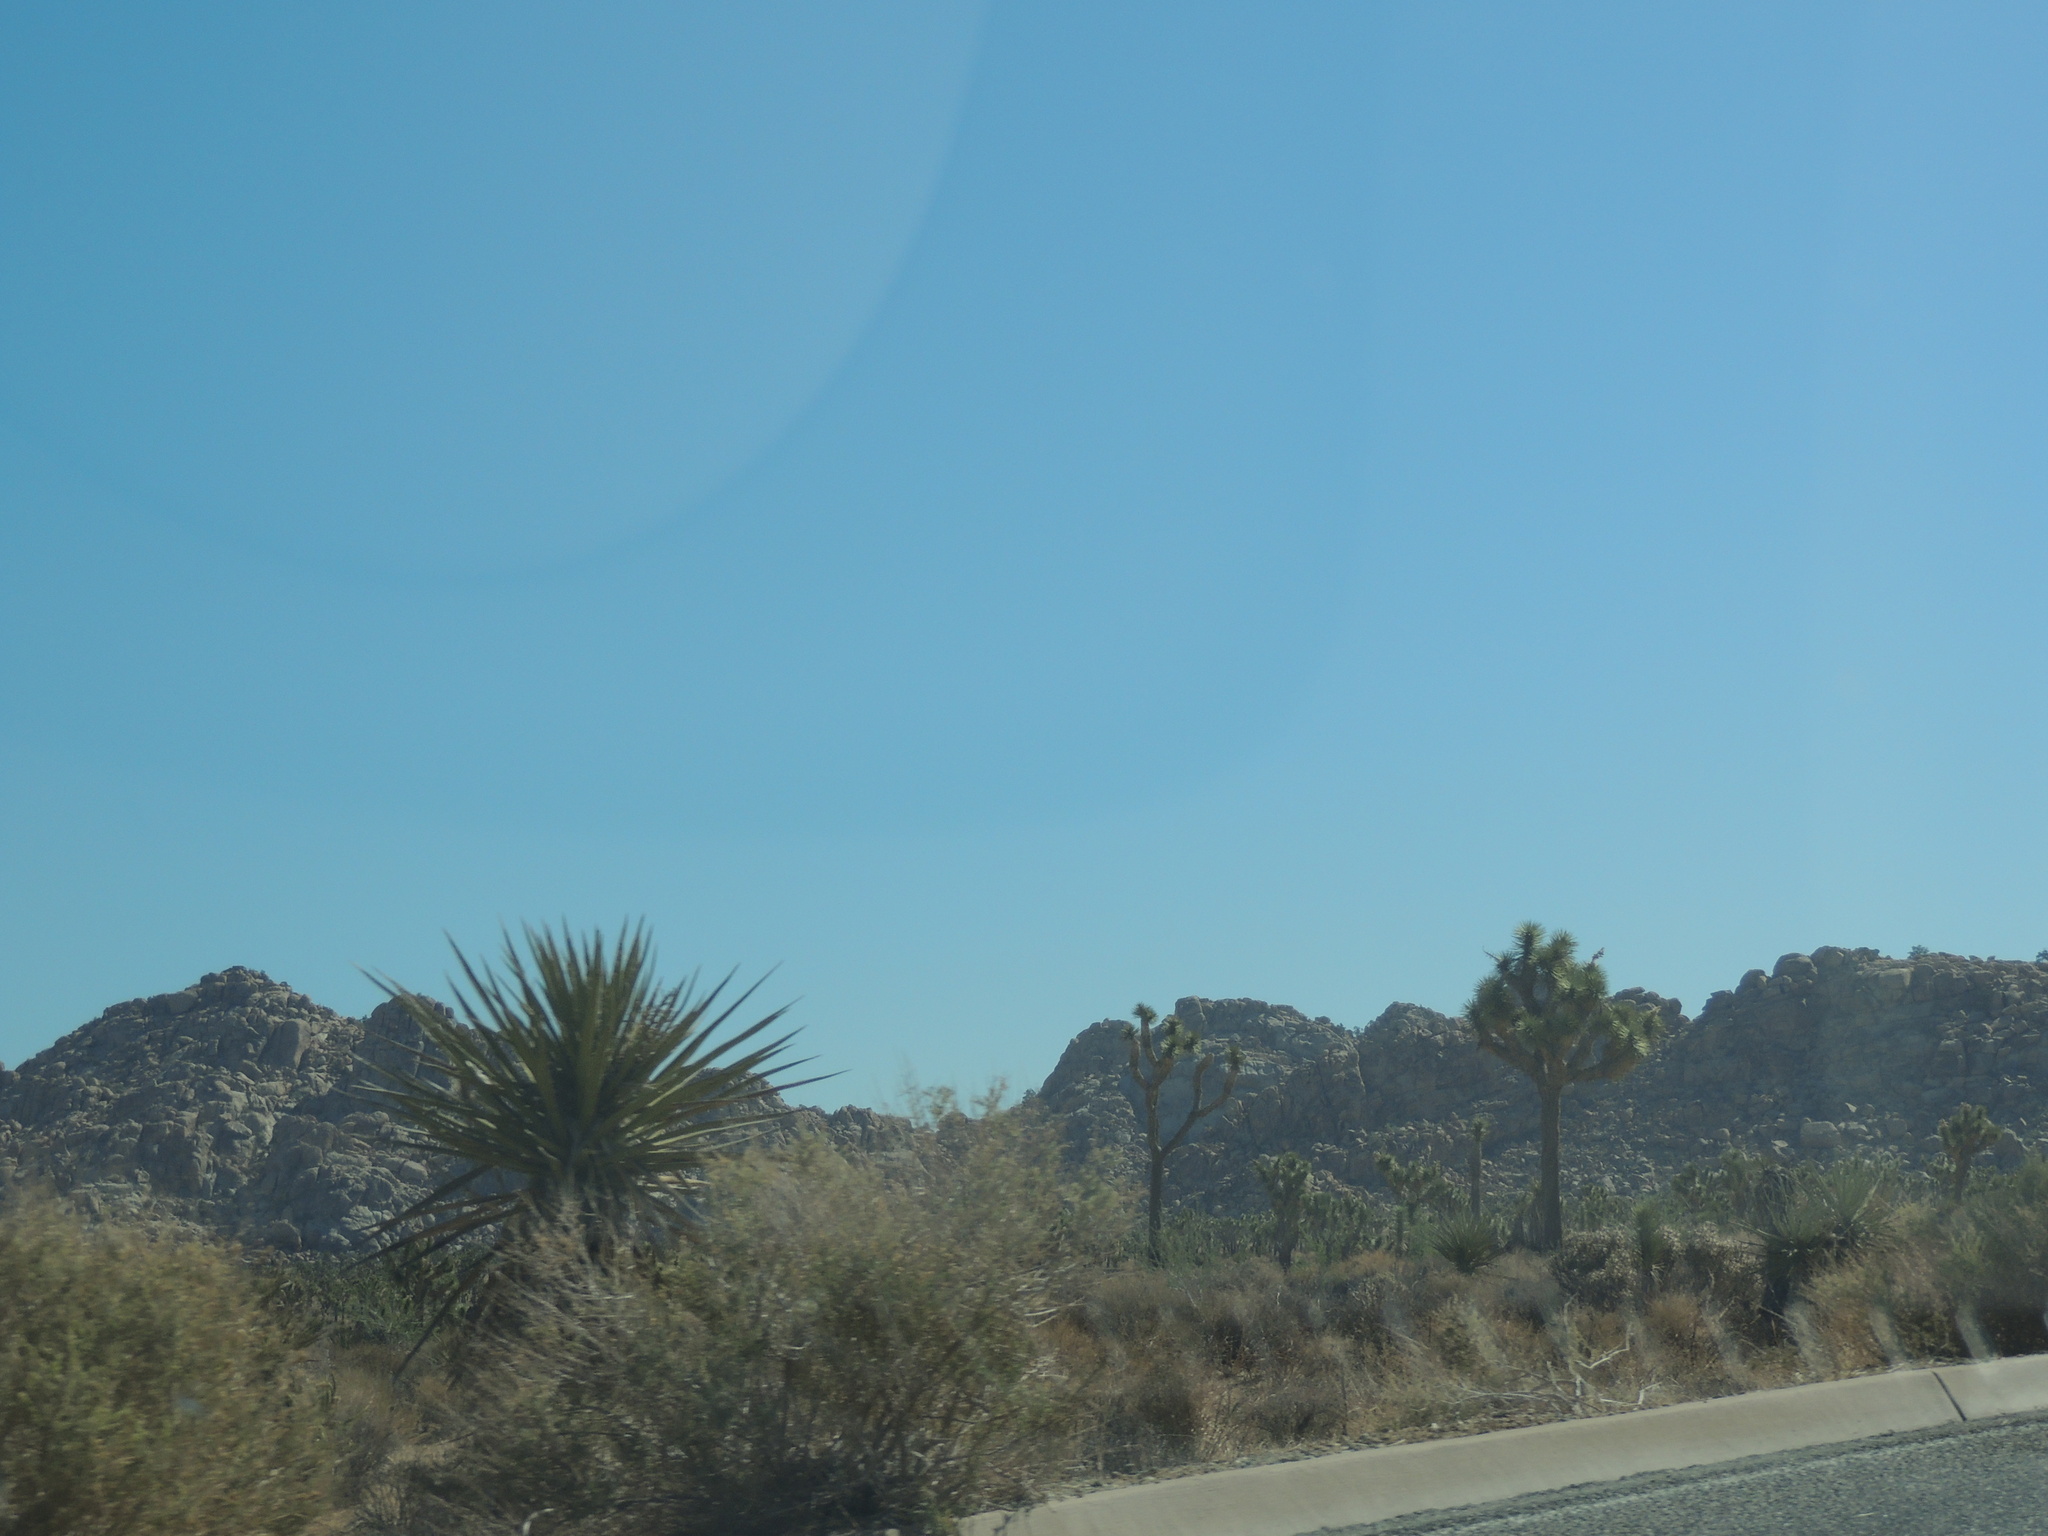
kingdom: Plantae
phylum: Tracheophyta
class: Liliopsida
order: Asparagales
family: Asparagaceae
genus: Yucca
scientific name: Yucca schidigera
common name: Mojave yucca
